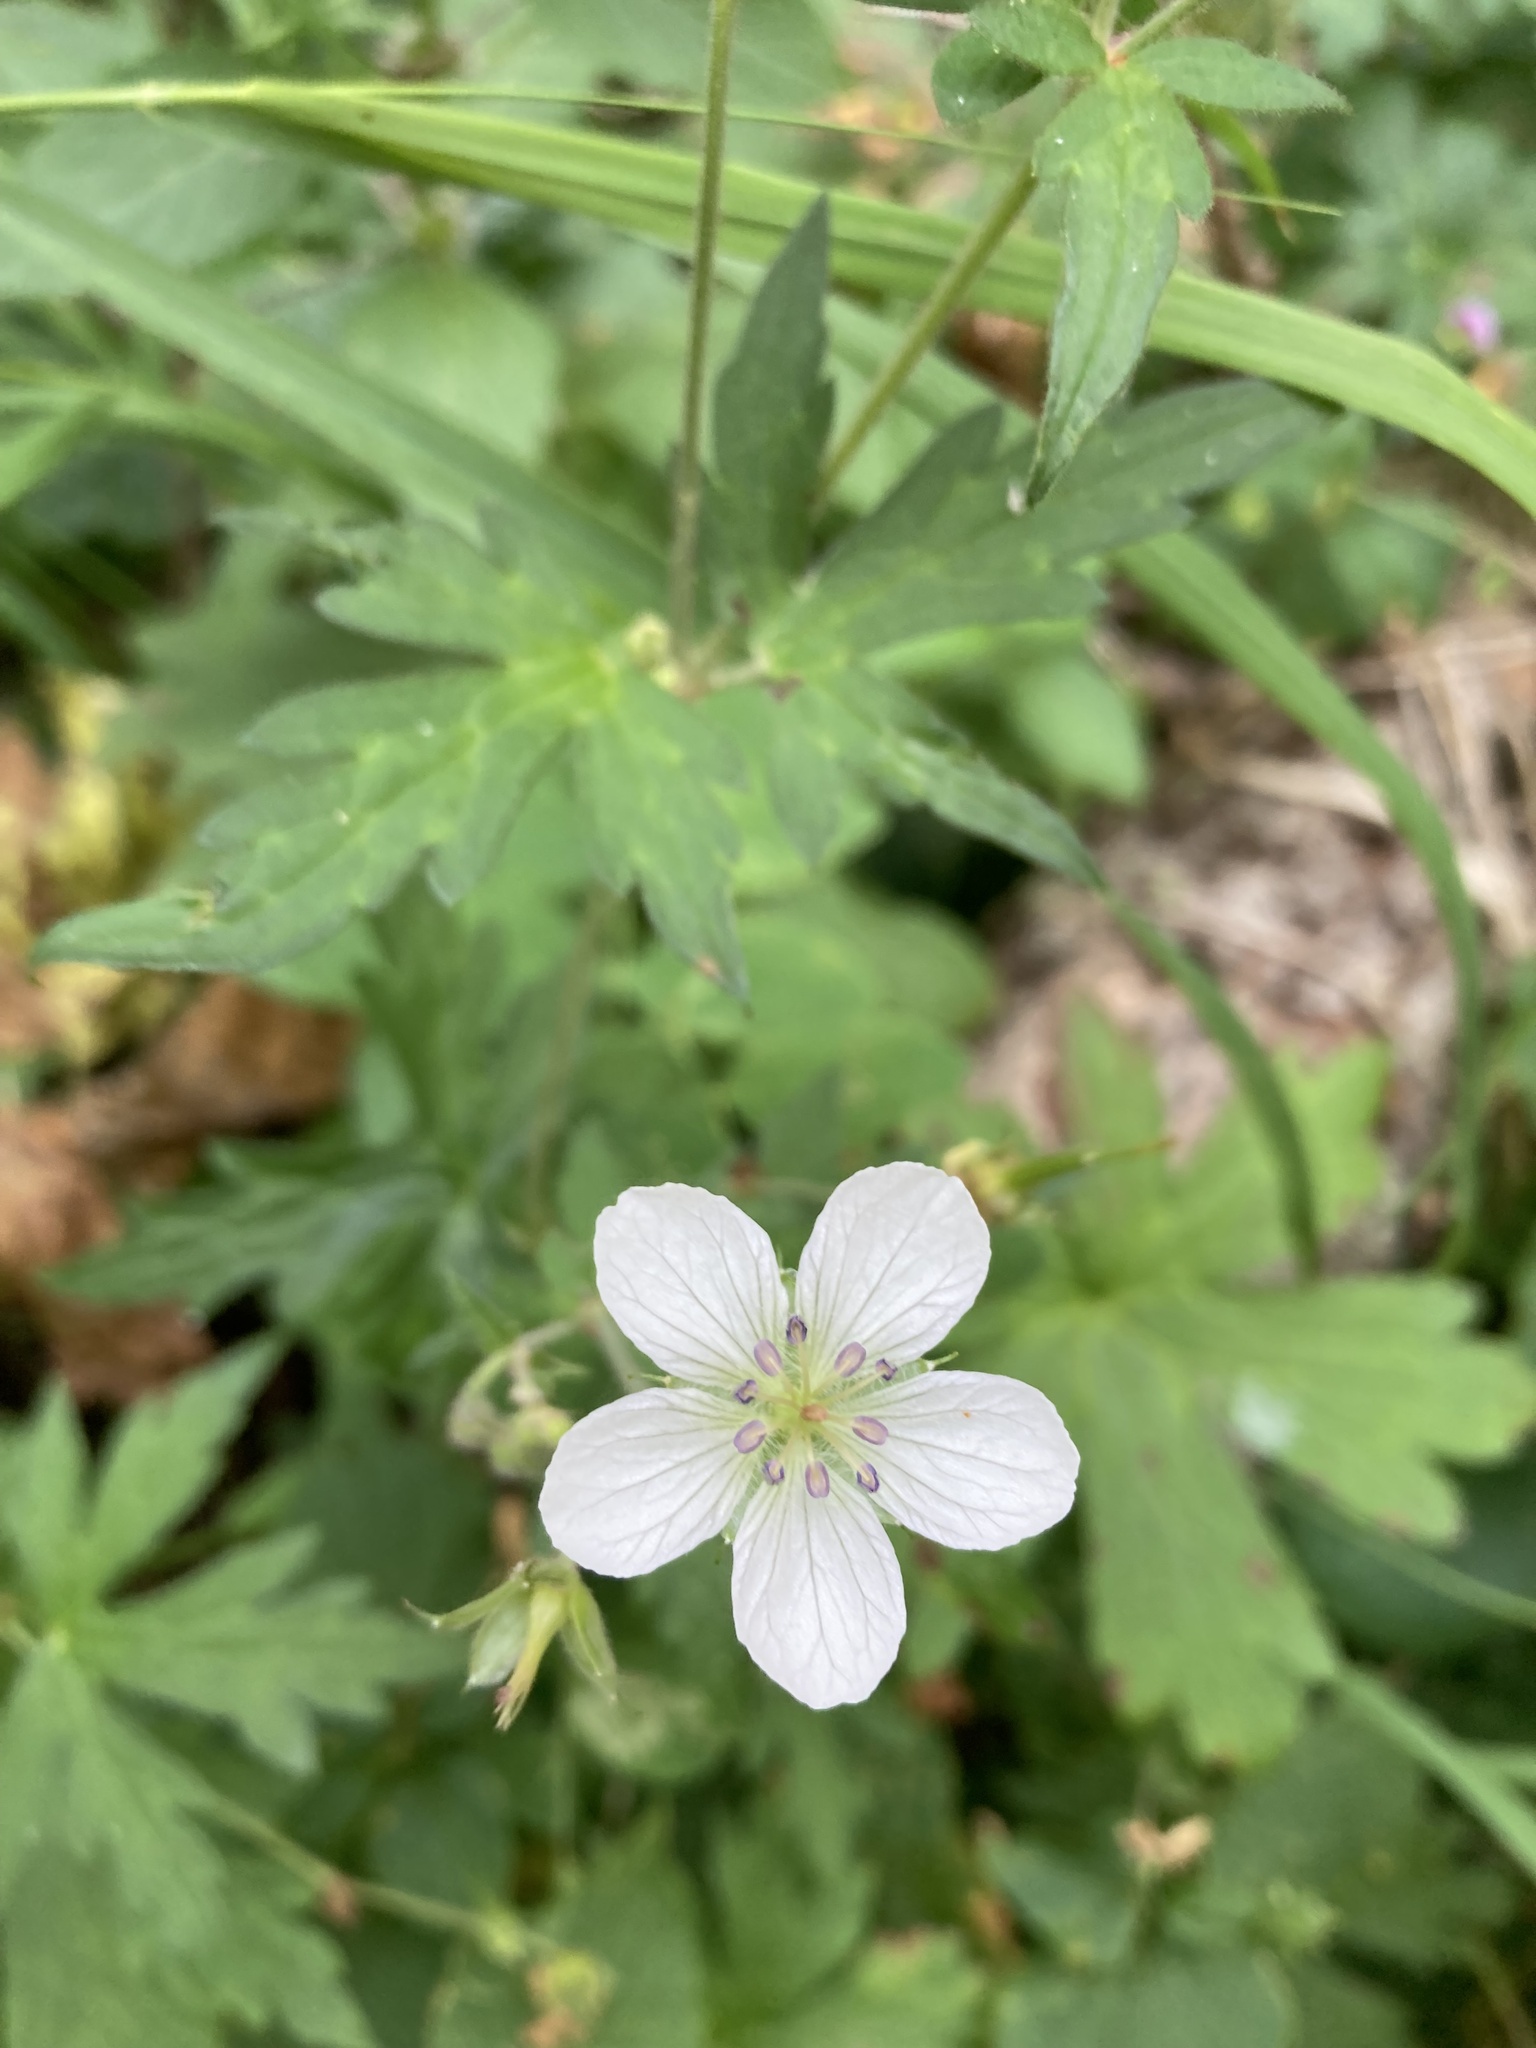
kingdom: Plantae
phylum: Tracheophyta
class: Magnoliopsida
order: Geraniales
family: Geraniaceae
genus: Geranium
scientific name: Geranium richardsonii
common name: Richardson's crane's-bill
